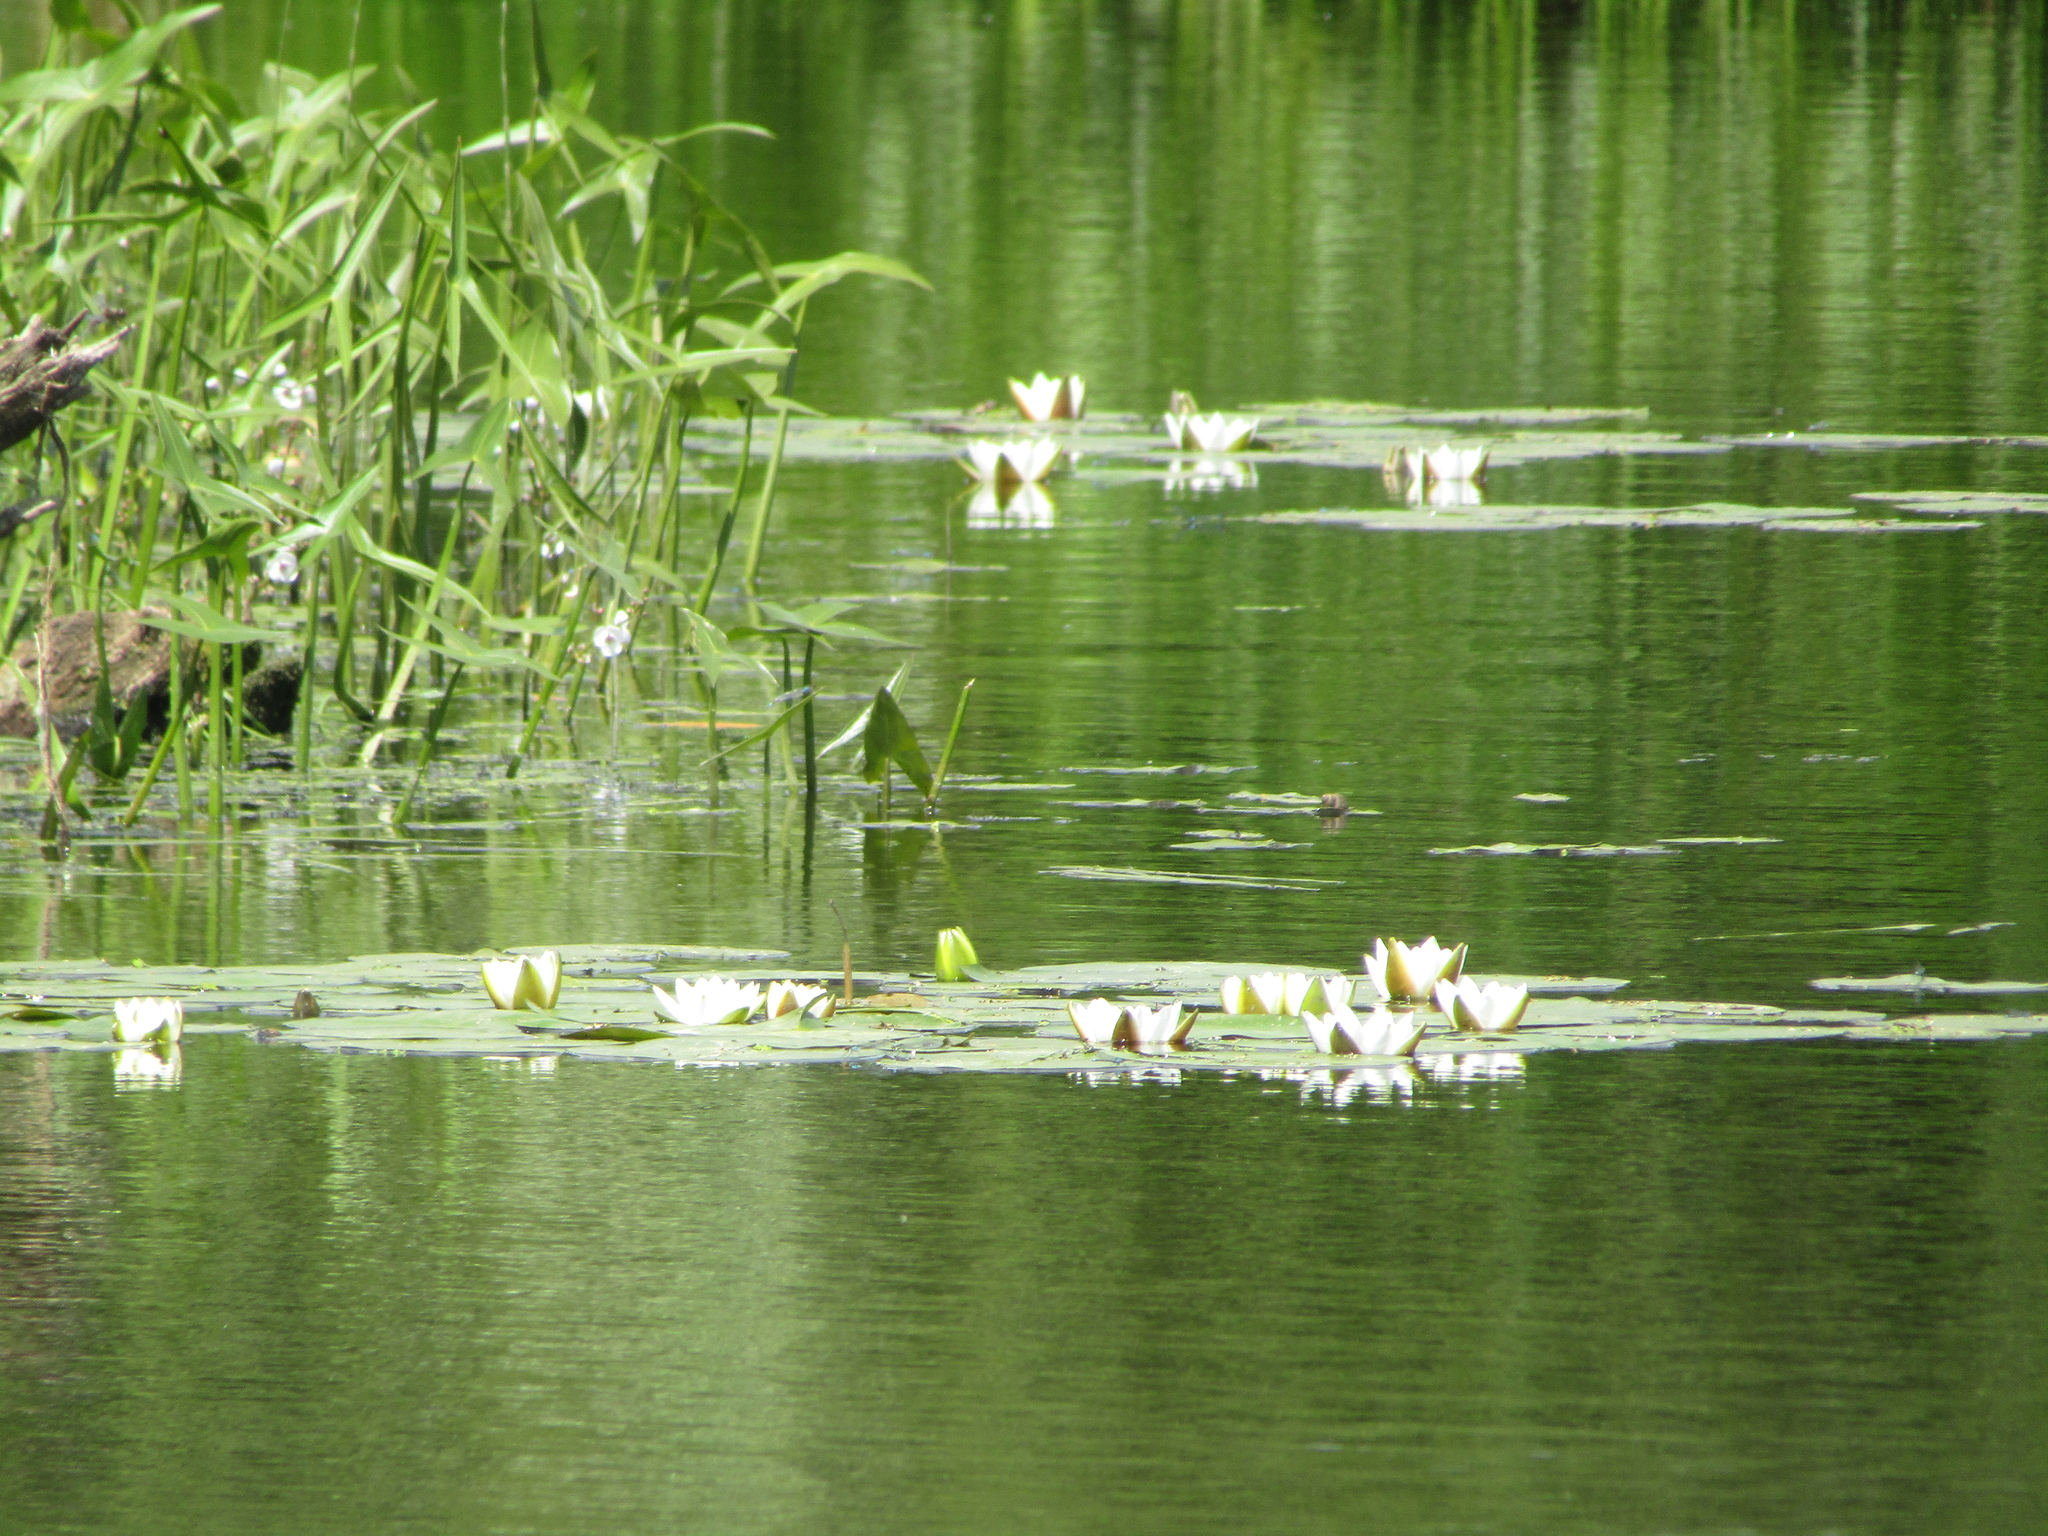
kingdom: Plantae
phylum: Tracheophyta
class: Magnoliopsida
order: Nymphaeales
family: Nymphaeaceae
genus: Nymphaea
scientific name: Nymphaea candida
